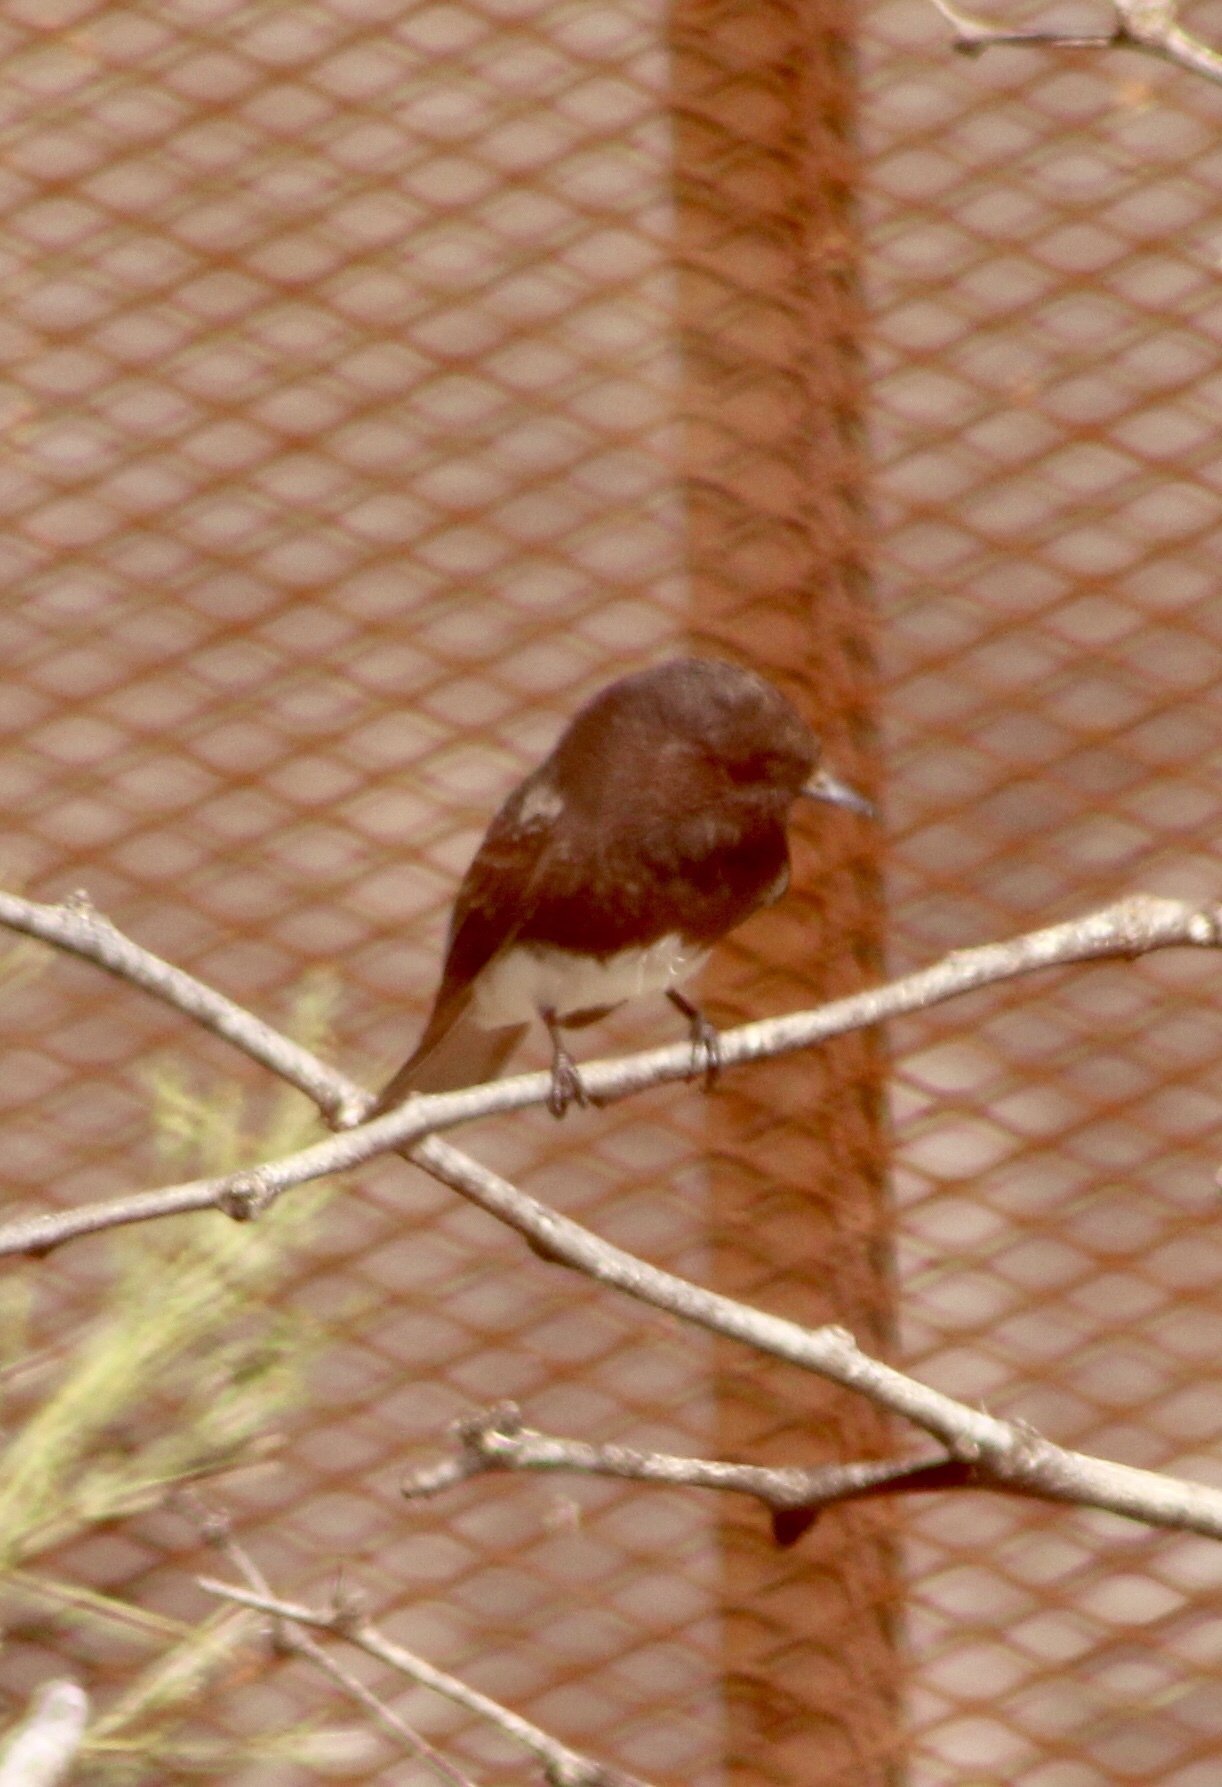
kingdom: Animalia
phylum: Chordata
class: Aves
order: Passeriformes
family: Tyrannidae
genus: Sayornis
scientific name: Sayornis nigricans
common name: Black phoebe
